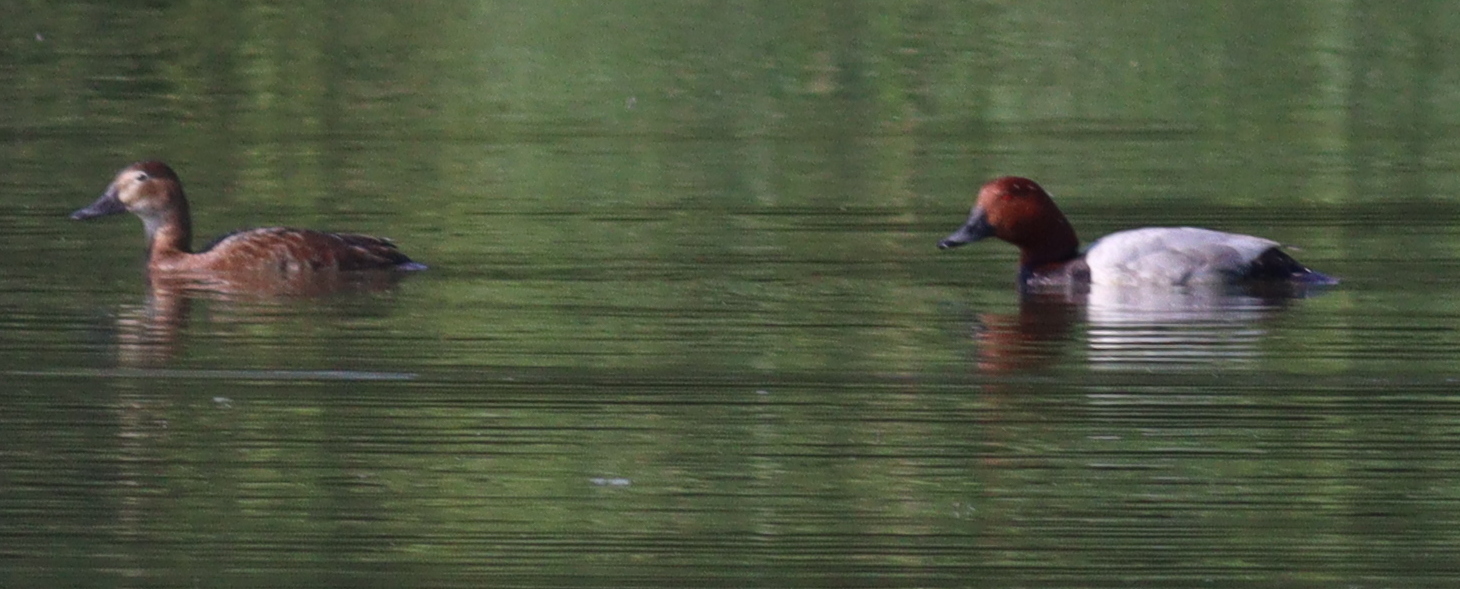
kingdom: Animalia
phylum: Chordata
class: Aves
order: Anseriformes
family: Anatidae
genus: Aythya
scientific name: Aythya ferina
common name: Common pochard
